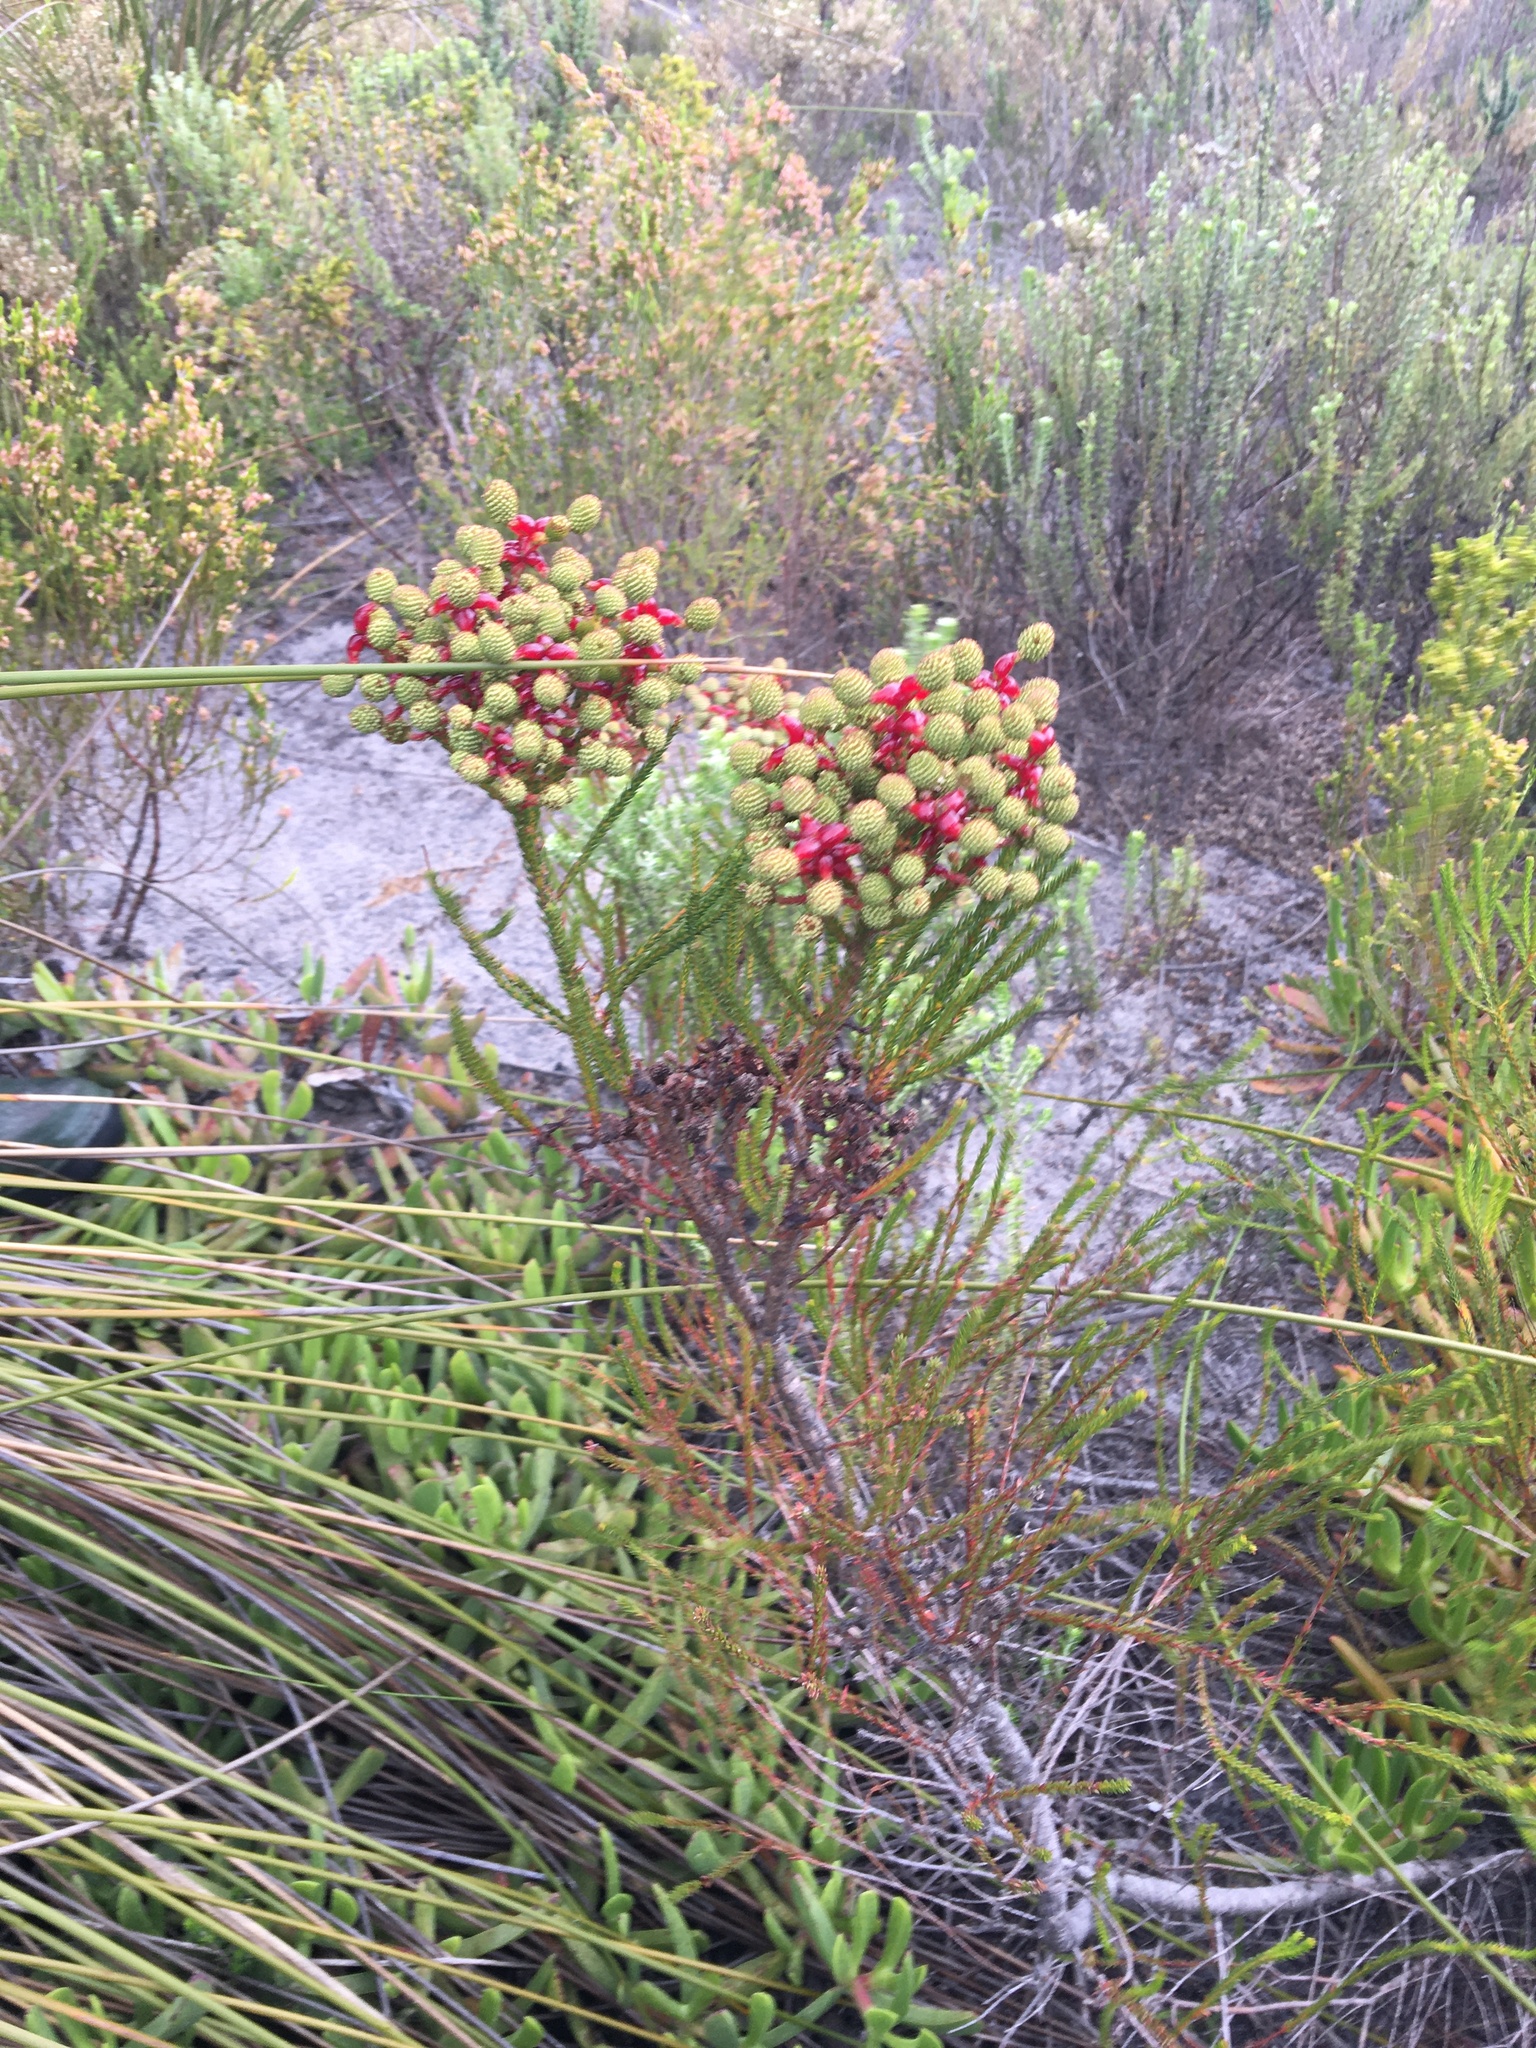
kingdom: Plantae
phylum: Tracheophyta
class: Magnoliopsida
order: Bruniales
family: Bruniaceae
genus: Berzelia
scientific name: Berzelia abrotanoides
